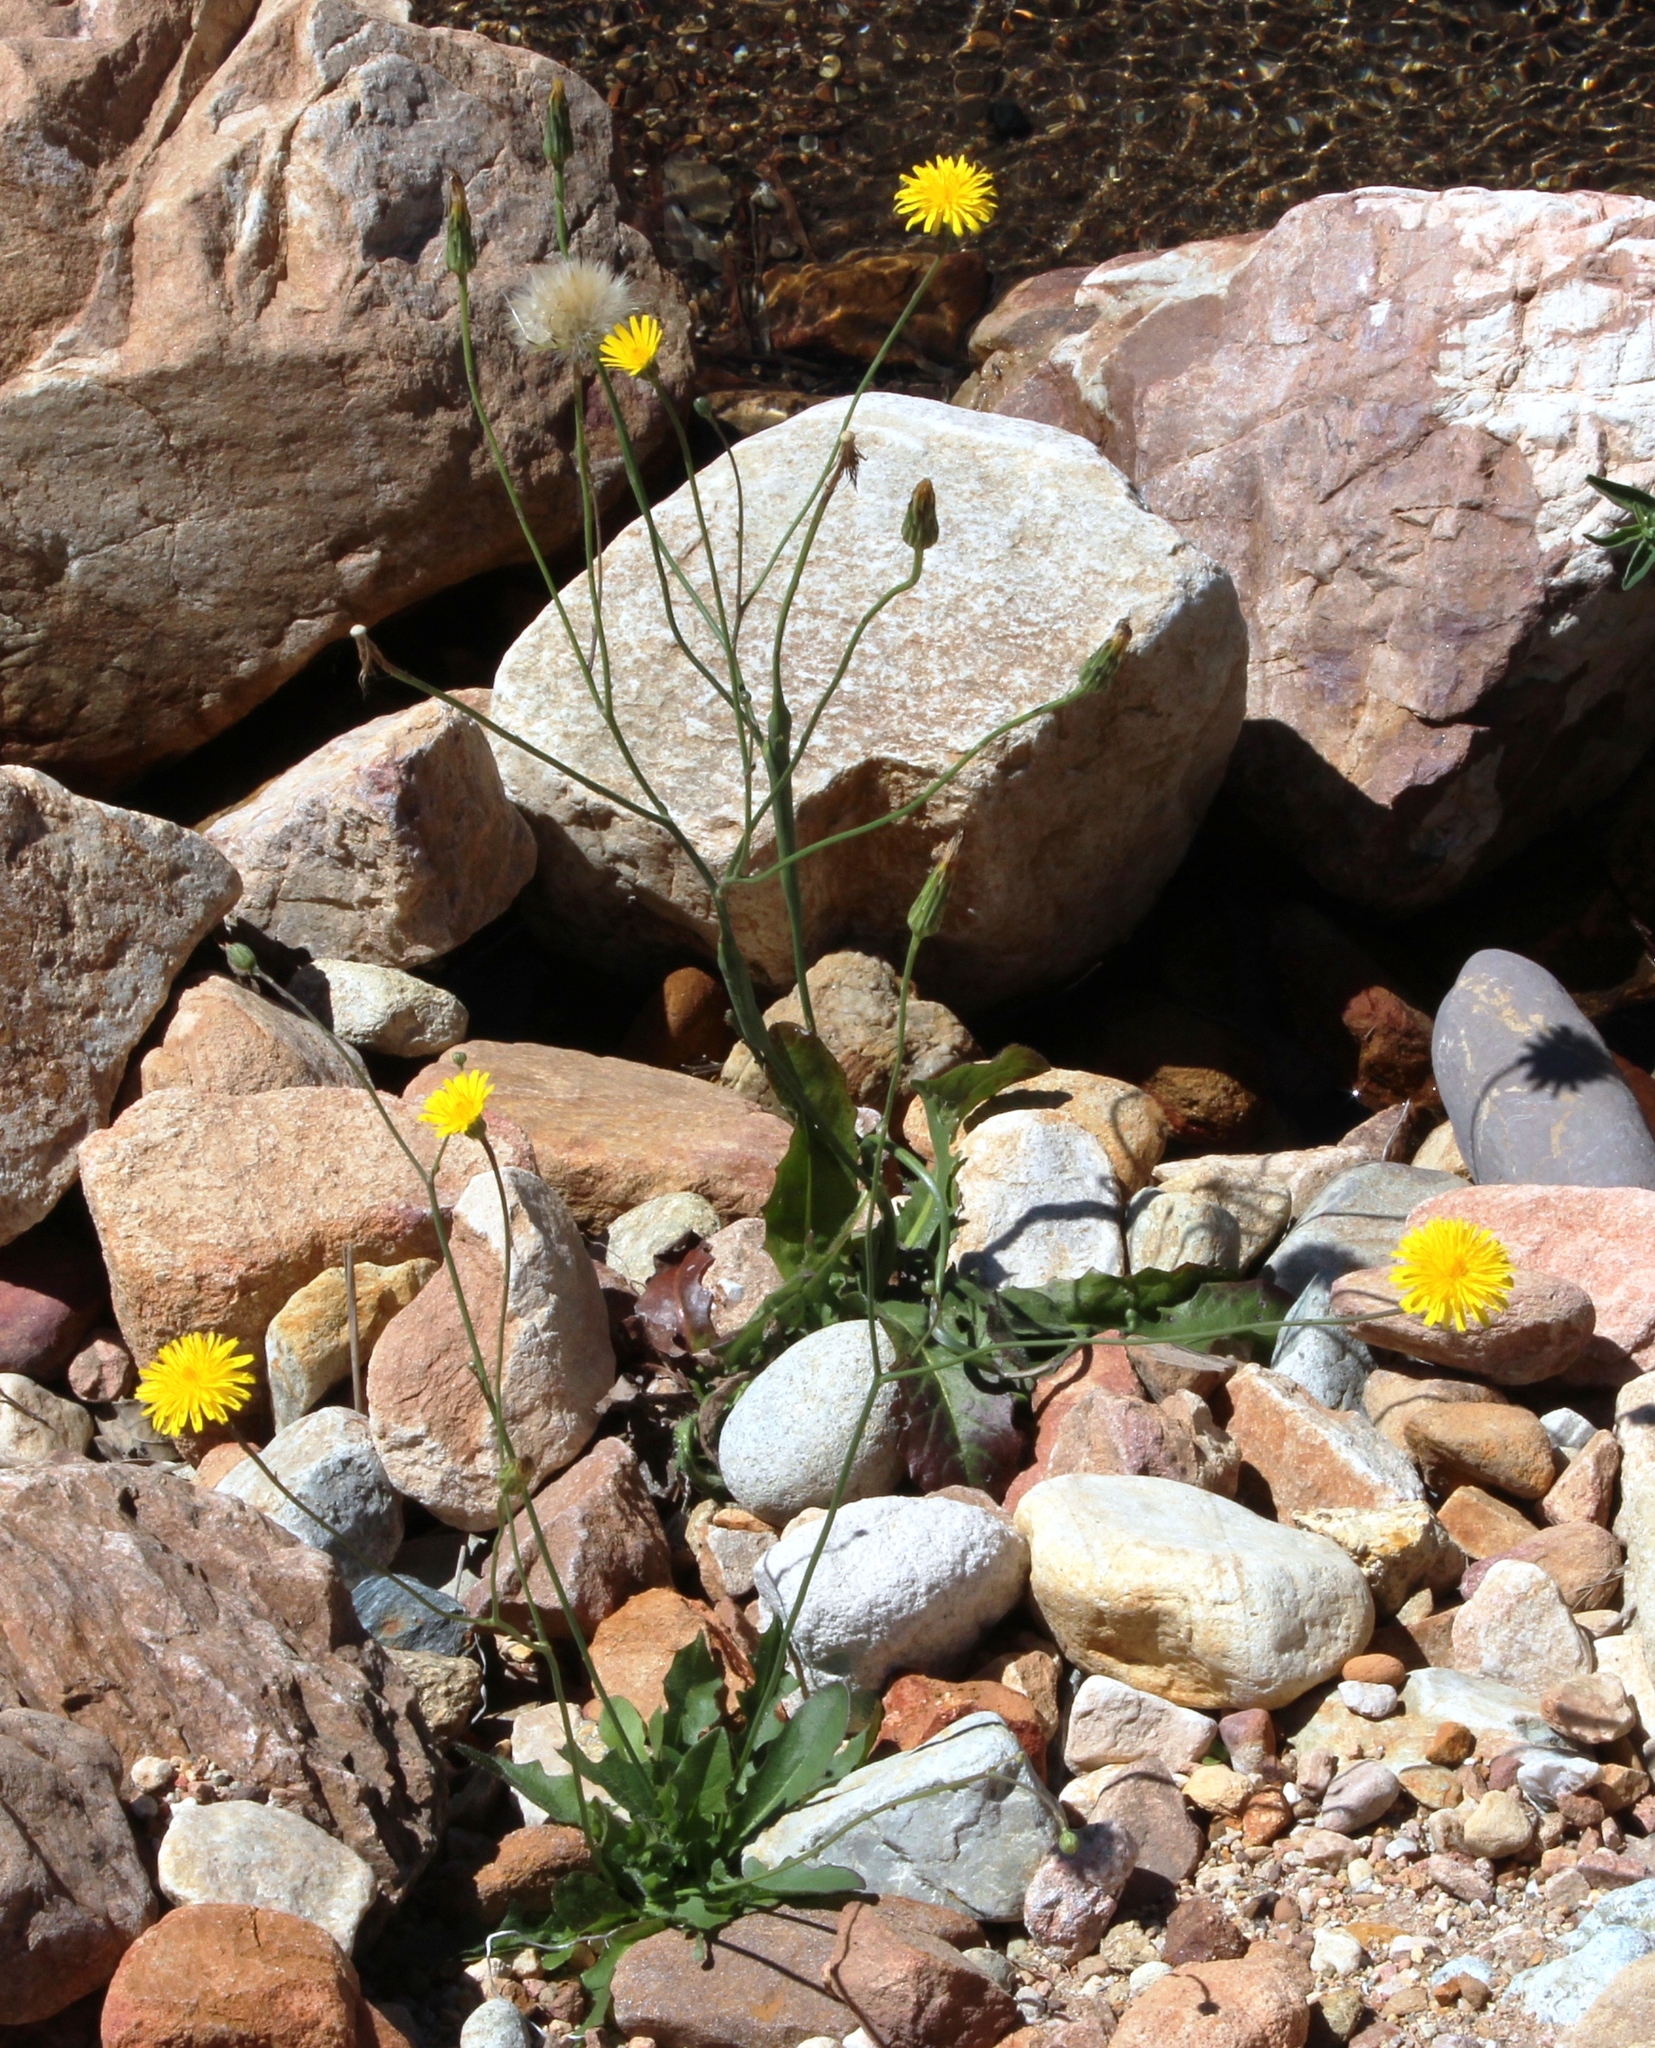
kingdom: Plantae
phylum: Tracheophyta
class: Magnoliopsida
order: Asterales
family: Asteraceae
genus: Hypochaeris
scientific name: Hypochaeris radicata
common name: Flatweed
